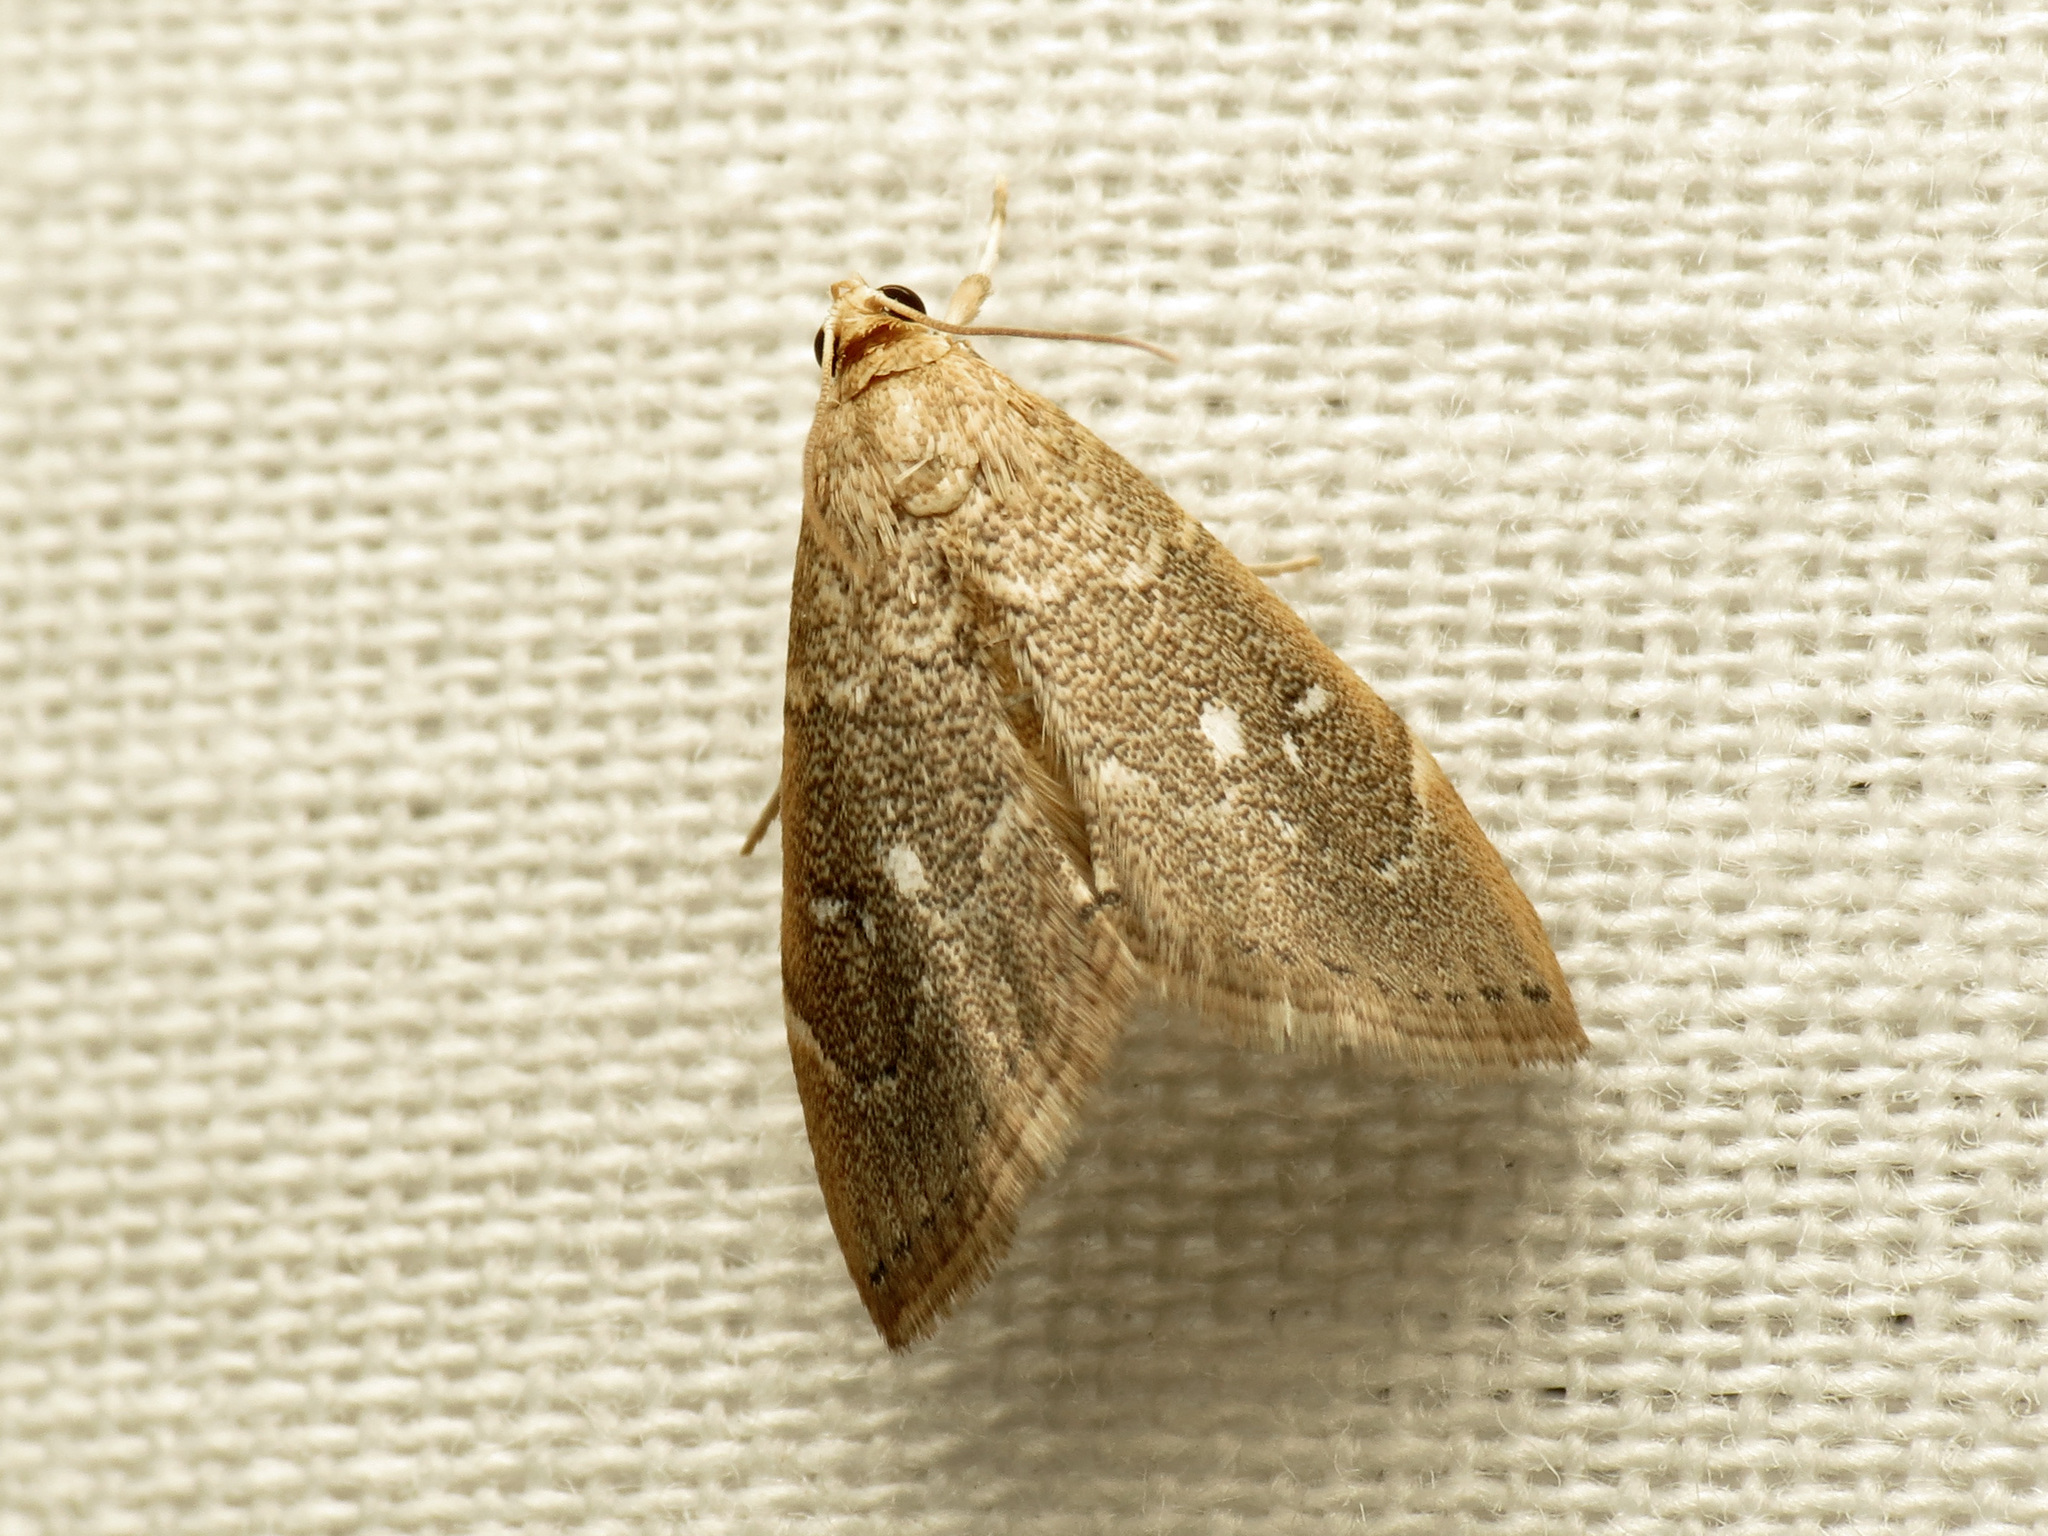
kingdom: Animalia
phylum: Arthropoda
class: Insecta
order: Lepidoptera
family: Crambidae
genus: Nephrogramma
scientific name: Nephrogramma separata
